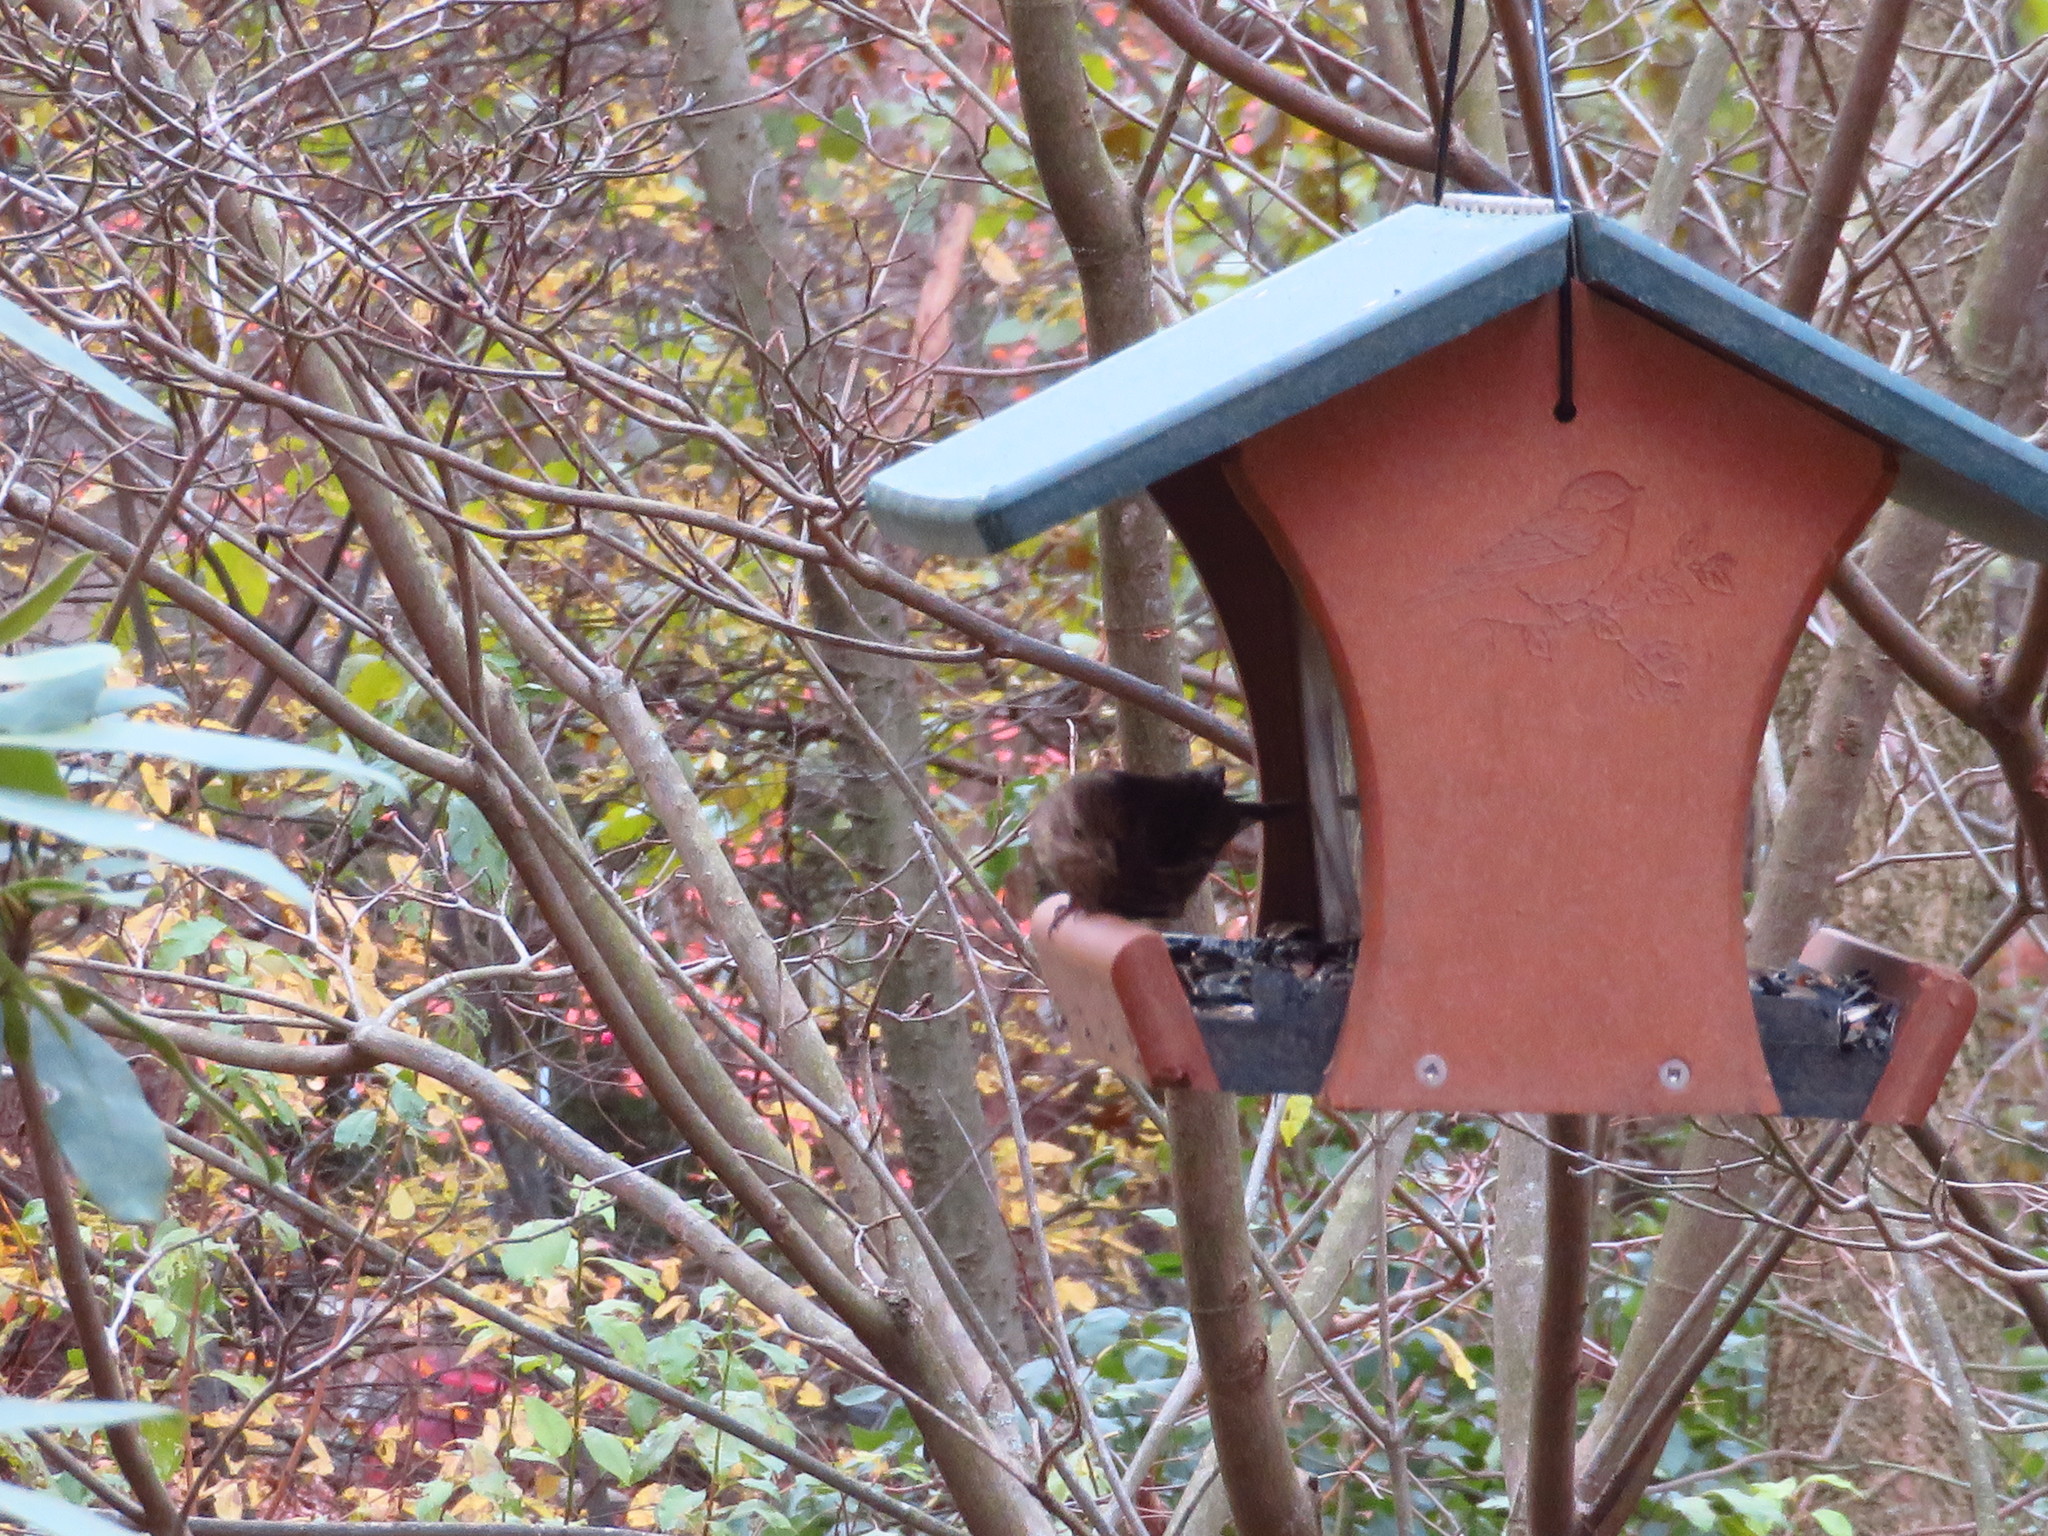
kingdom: Animalia
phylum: Chordata
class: Aves
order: Passeriformes
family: Fringillidae
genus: Haemorhous
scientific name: Haemorhous mexicanus
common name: House finch
